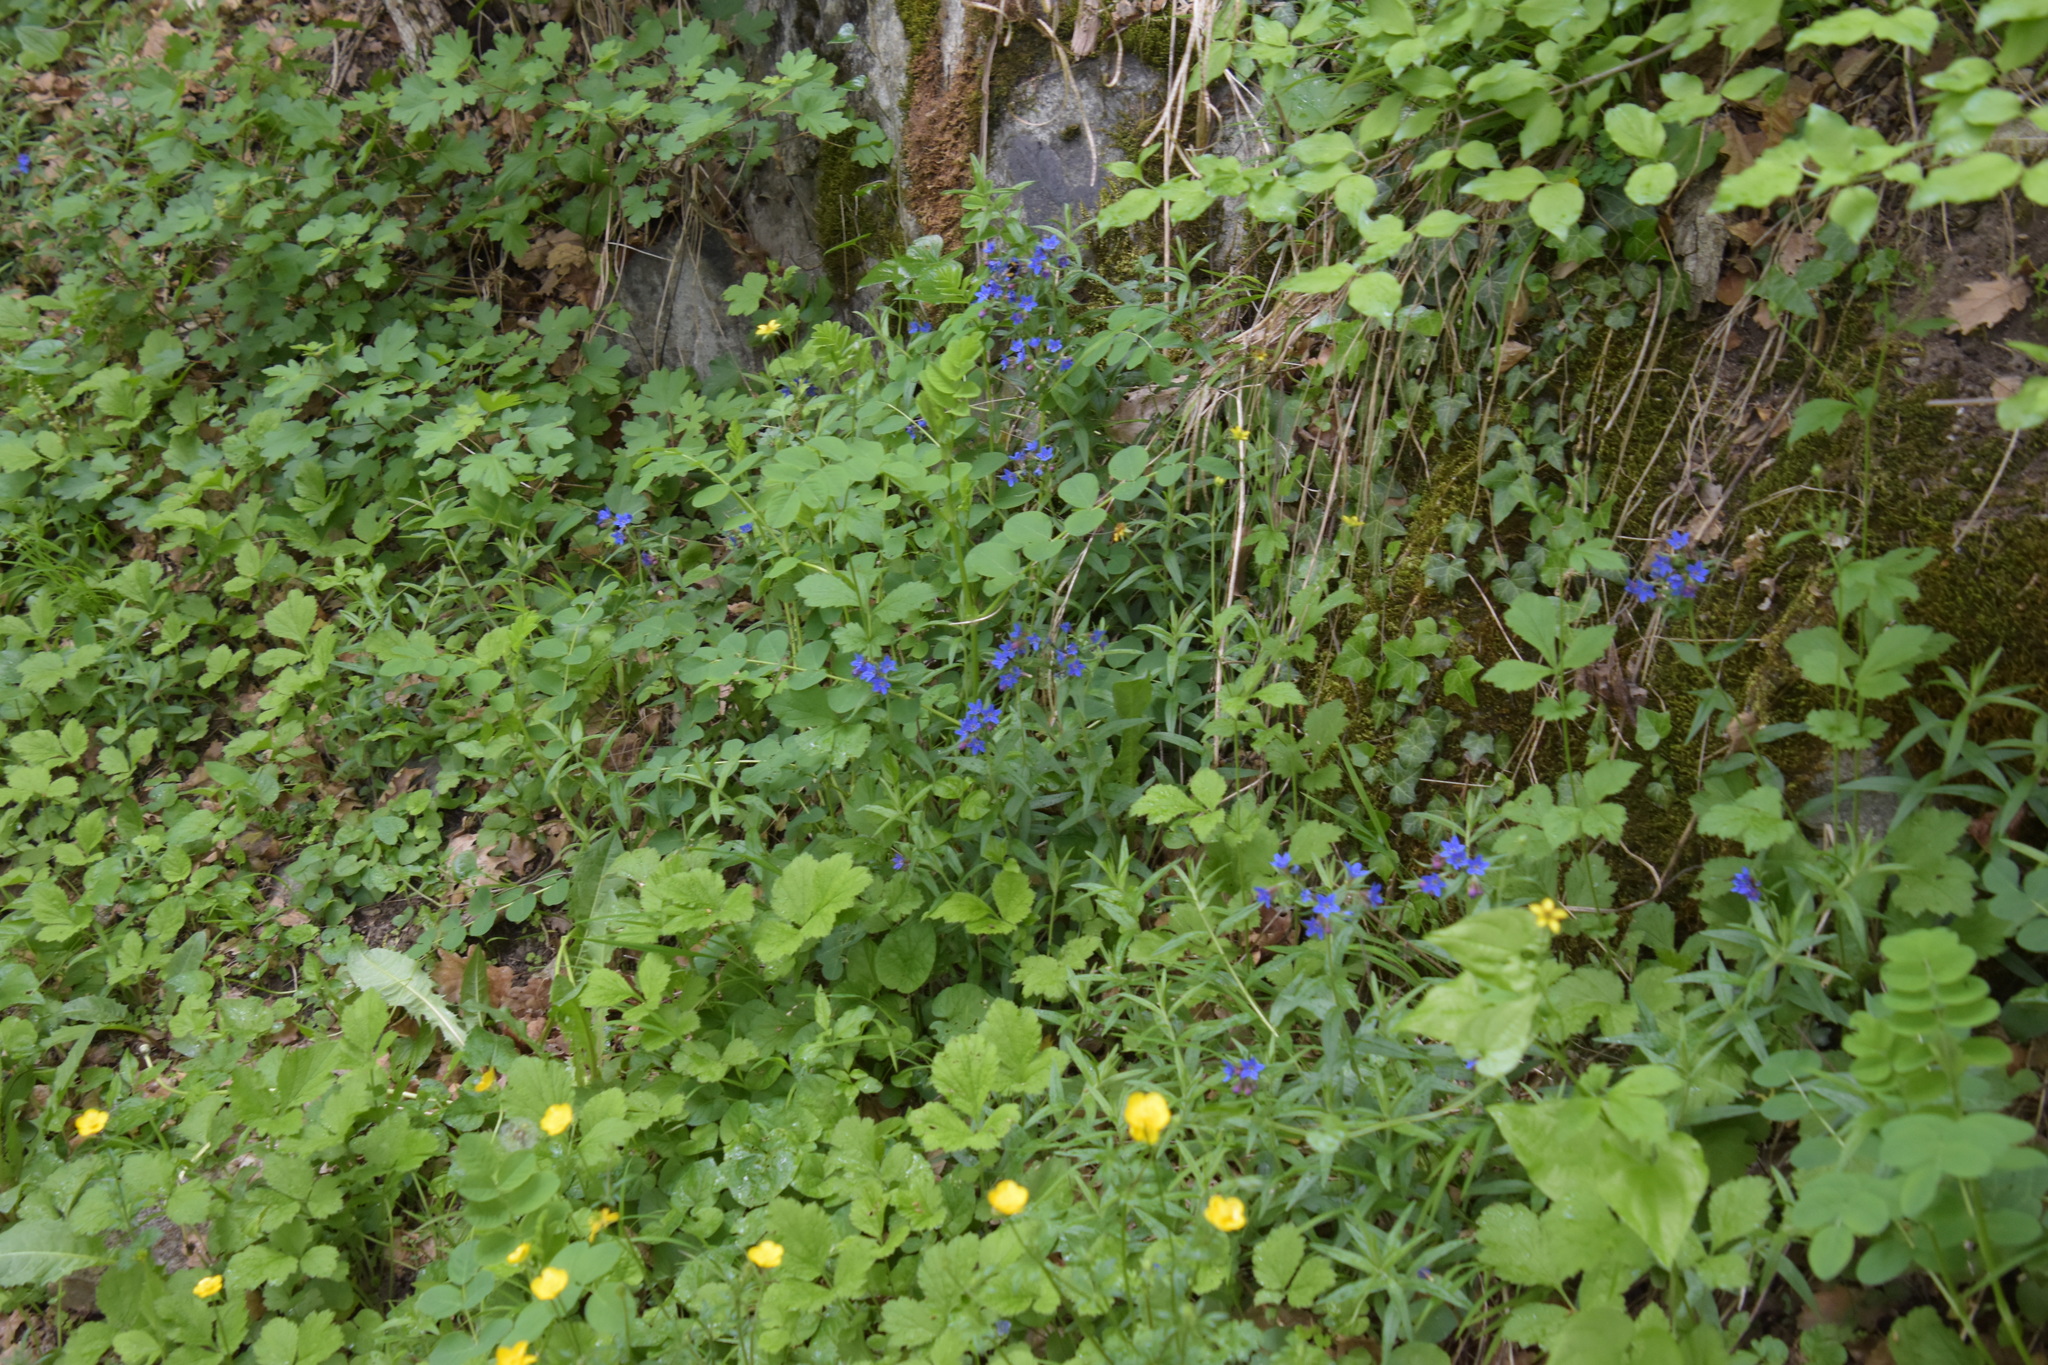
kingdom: Plantae
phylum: Tracheophyta
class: Magnoliopsida
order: Boraginales
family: Boraginaceae
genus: Aegonychon
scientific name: Aegonychon purpurocaeruleum
